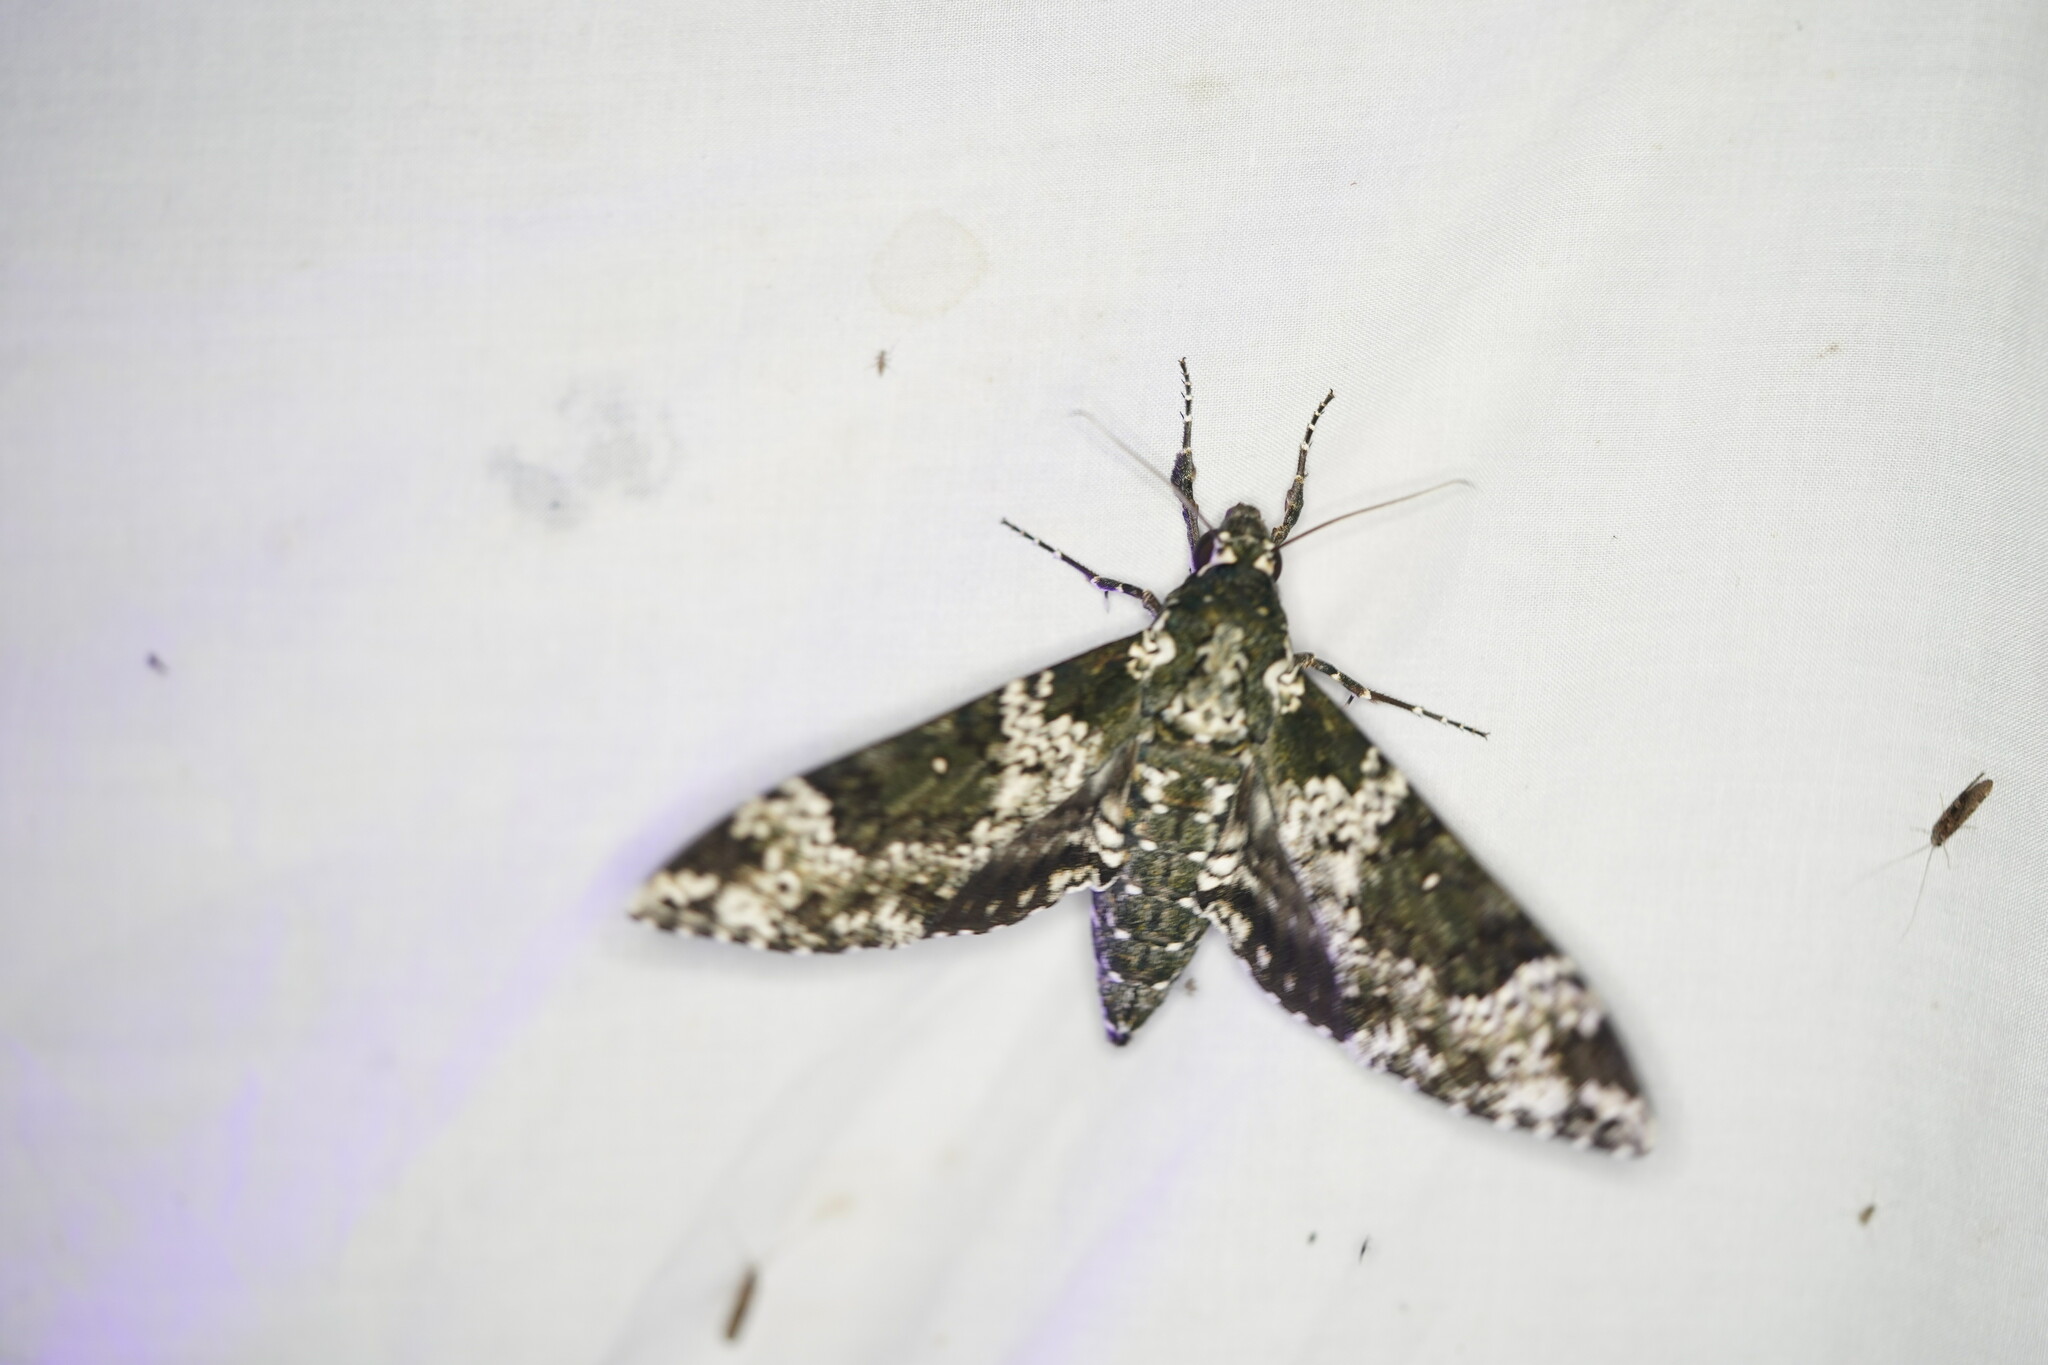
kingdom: Animalia
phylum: Arthropoda
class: Insecta
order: Lepidoptera
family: Sphingidae
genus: Manduca
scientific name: Manduca rustica
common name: Rustic sphinx
